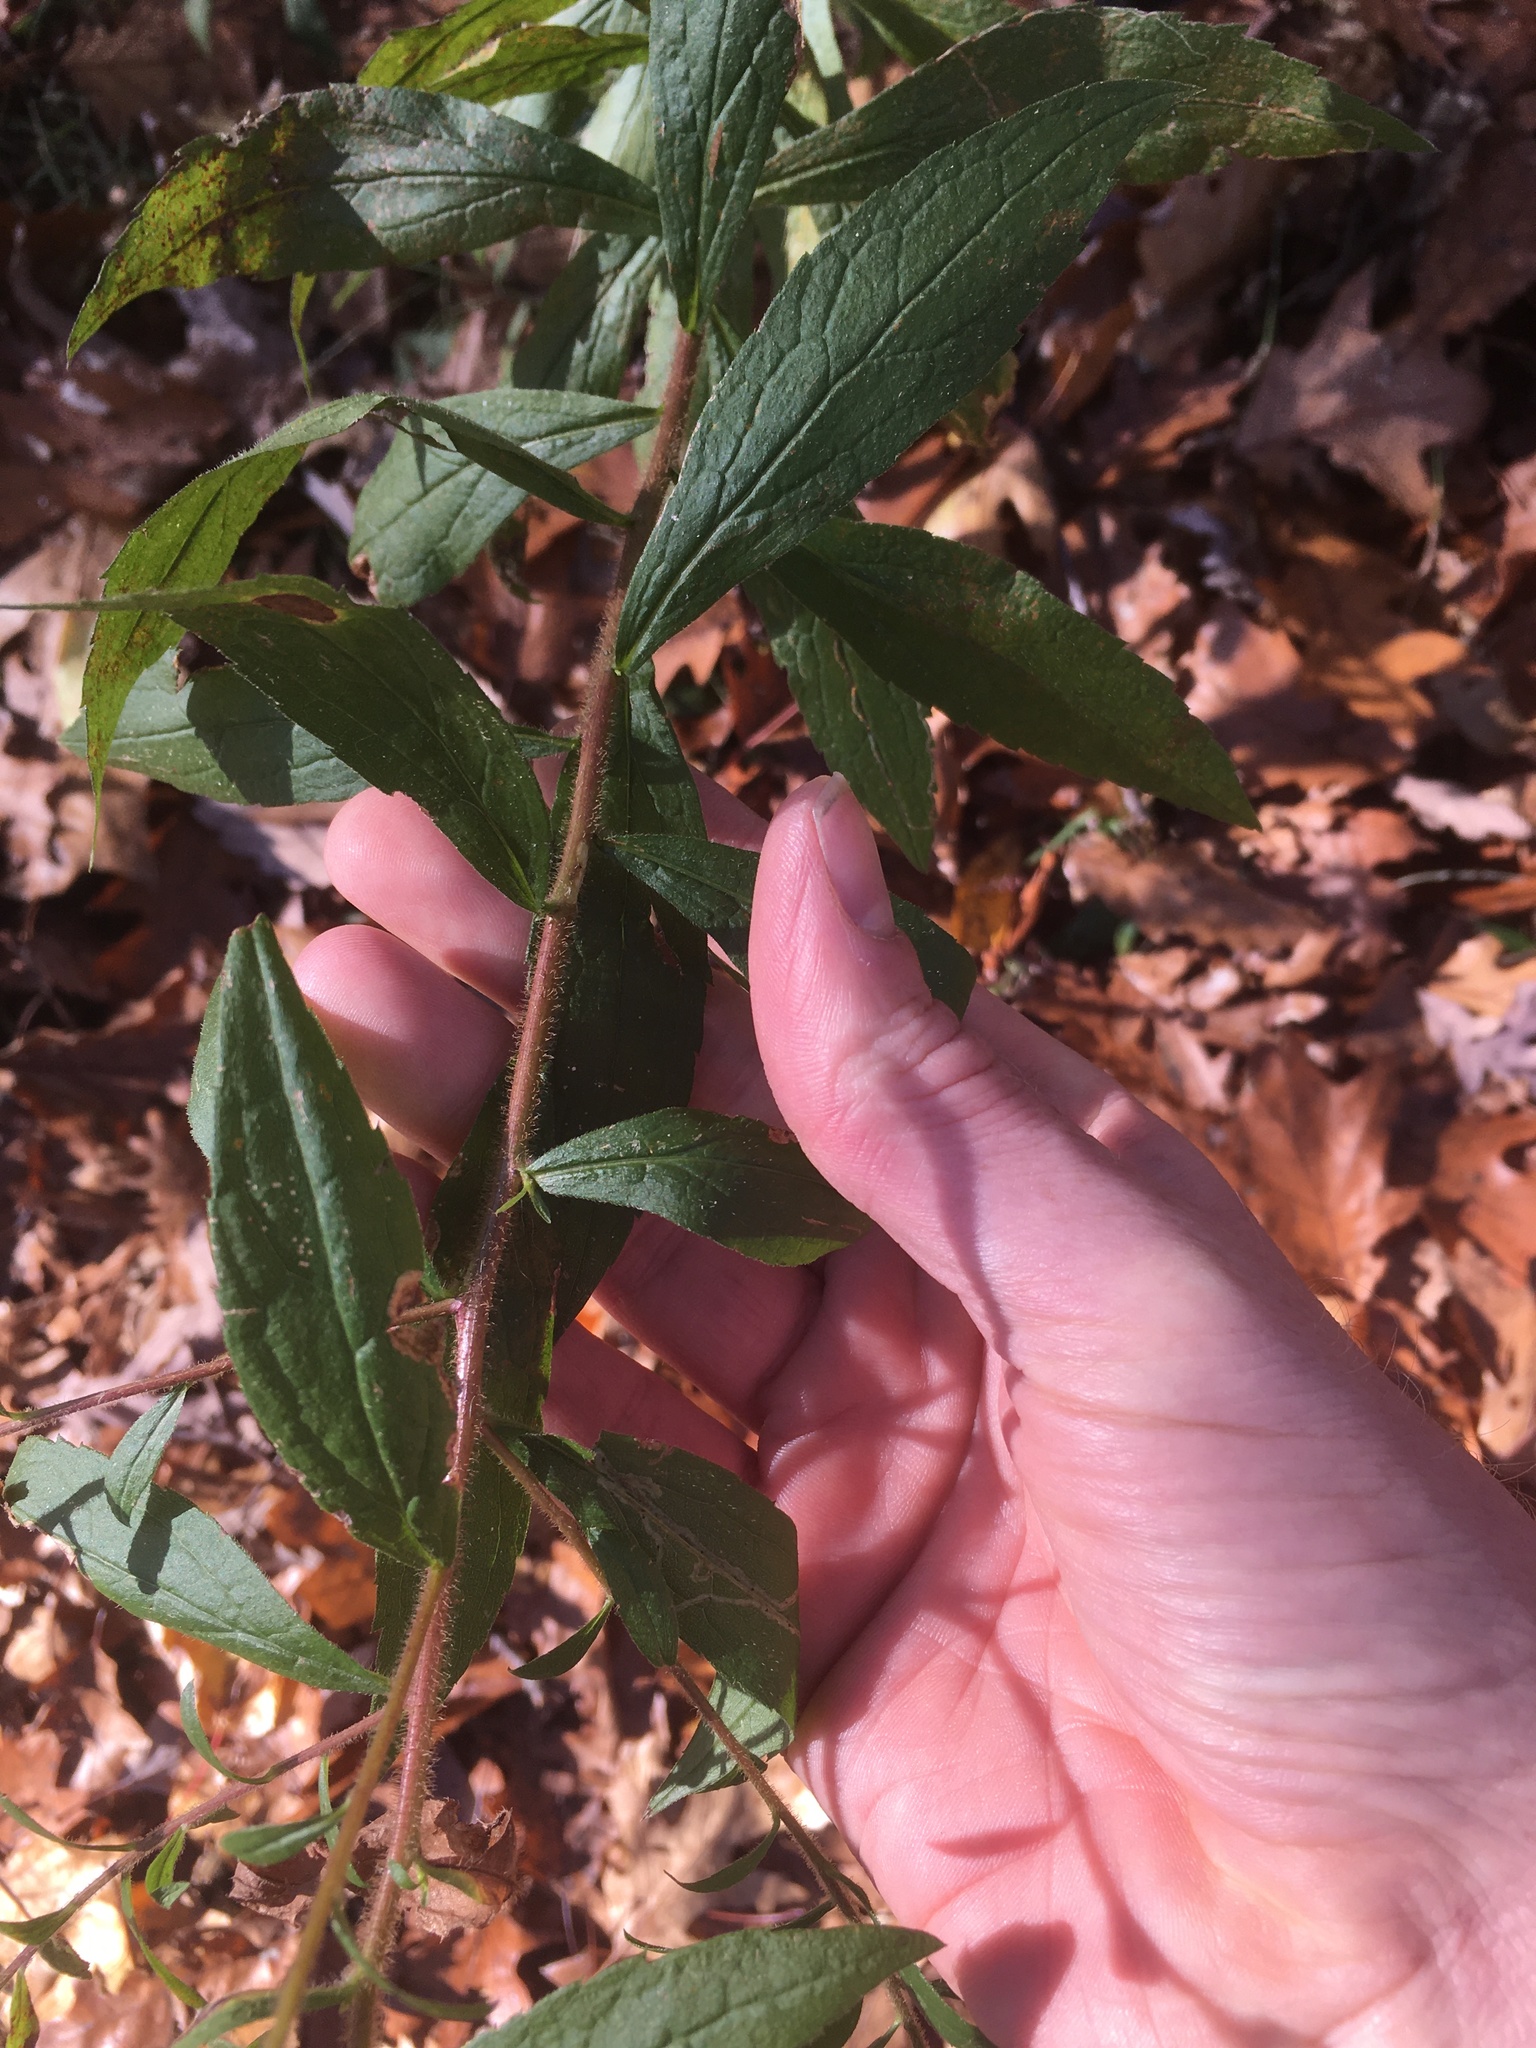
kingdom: Plantae
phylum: Tracheophyta
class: Magnoliopsida
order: Asterales
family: Asteraceae
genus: Solidago
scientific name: Solidago rugosa
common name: Rough-stemmed goldenrod
